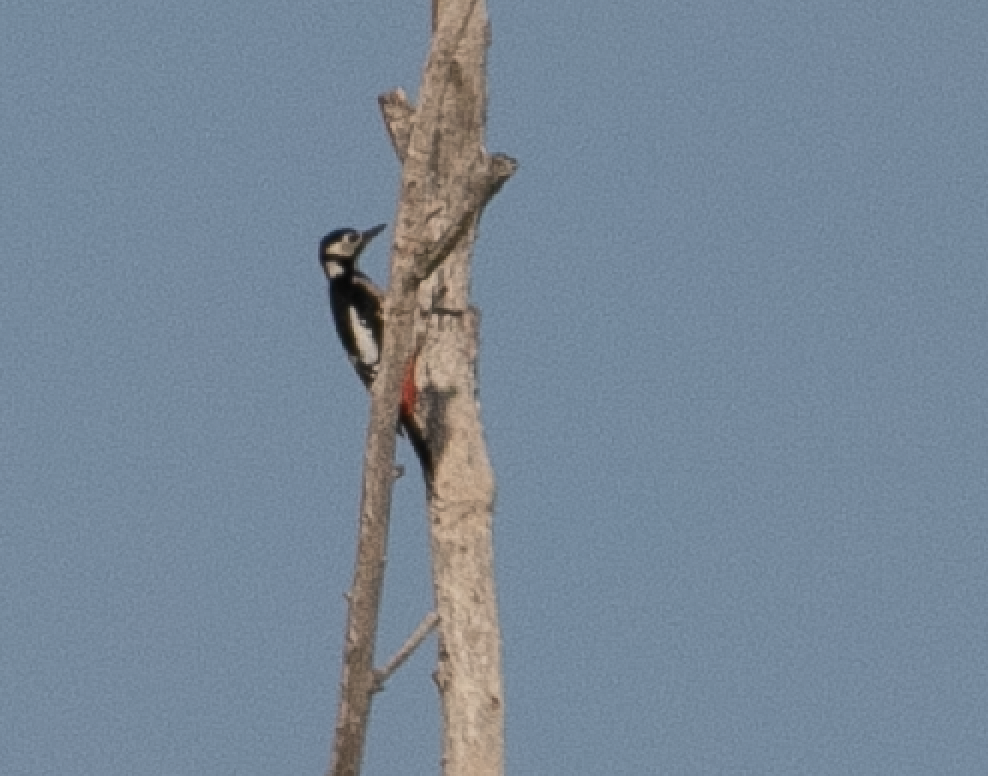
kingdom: Animalia
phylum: Chordata
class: Aves
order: Piciformes
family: Picidae
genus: Dendrocopos
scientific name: Dendrocopos major
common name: Great spotted woodpecker
